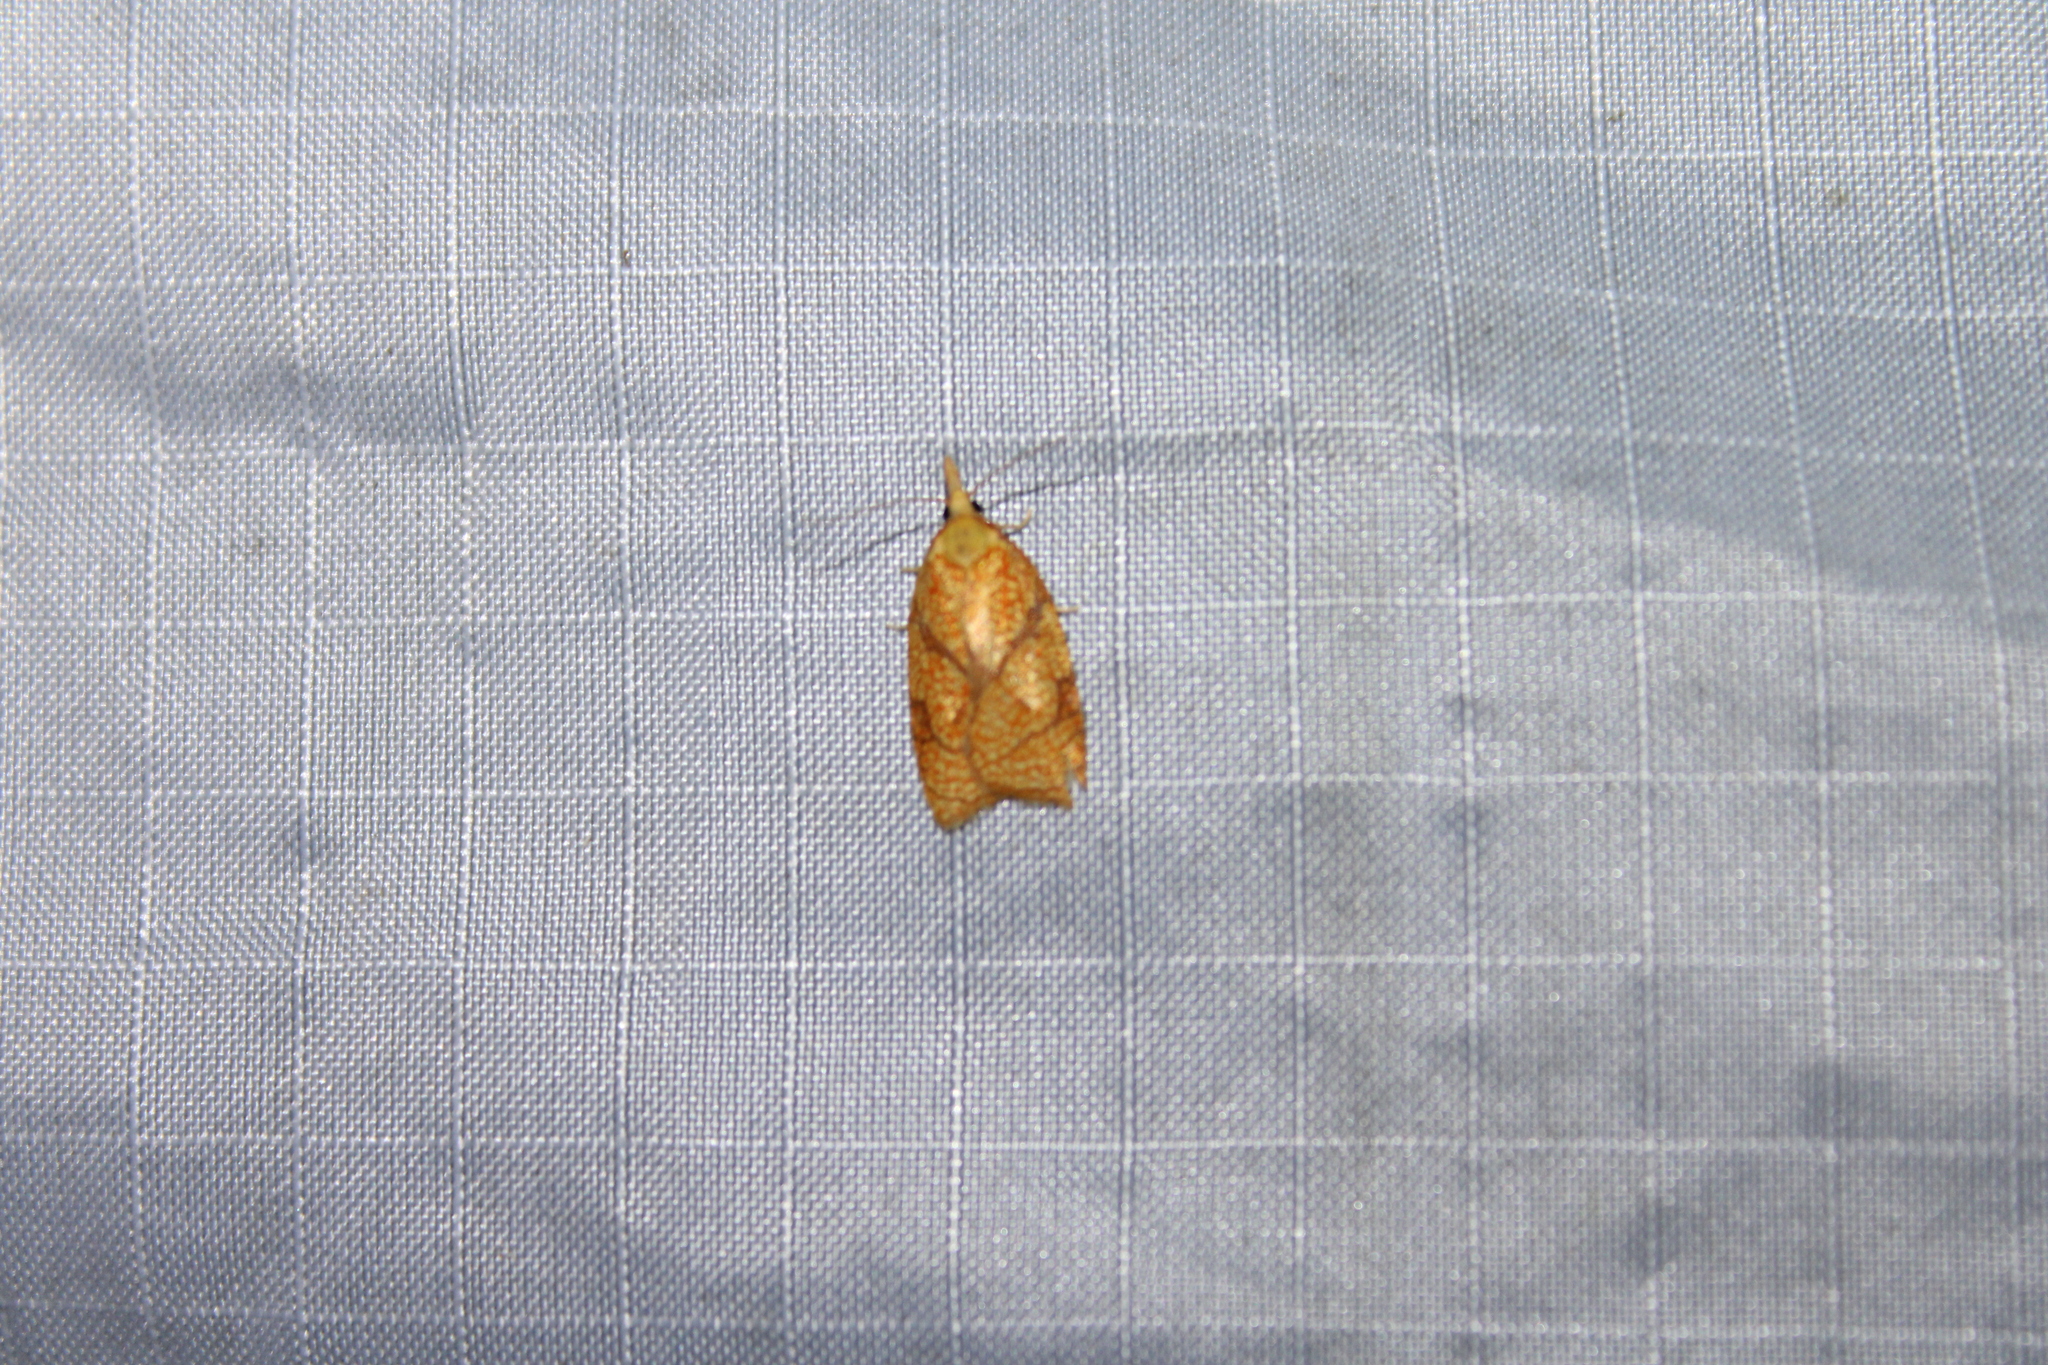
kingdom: Animalia
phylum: Arthropoda
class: Insecta
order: Lepidoptera
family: Tortricidae
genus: Cenopis
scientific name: Cenopis reticulatana
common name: Reticulated fruitworm moth
